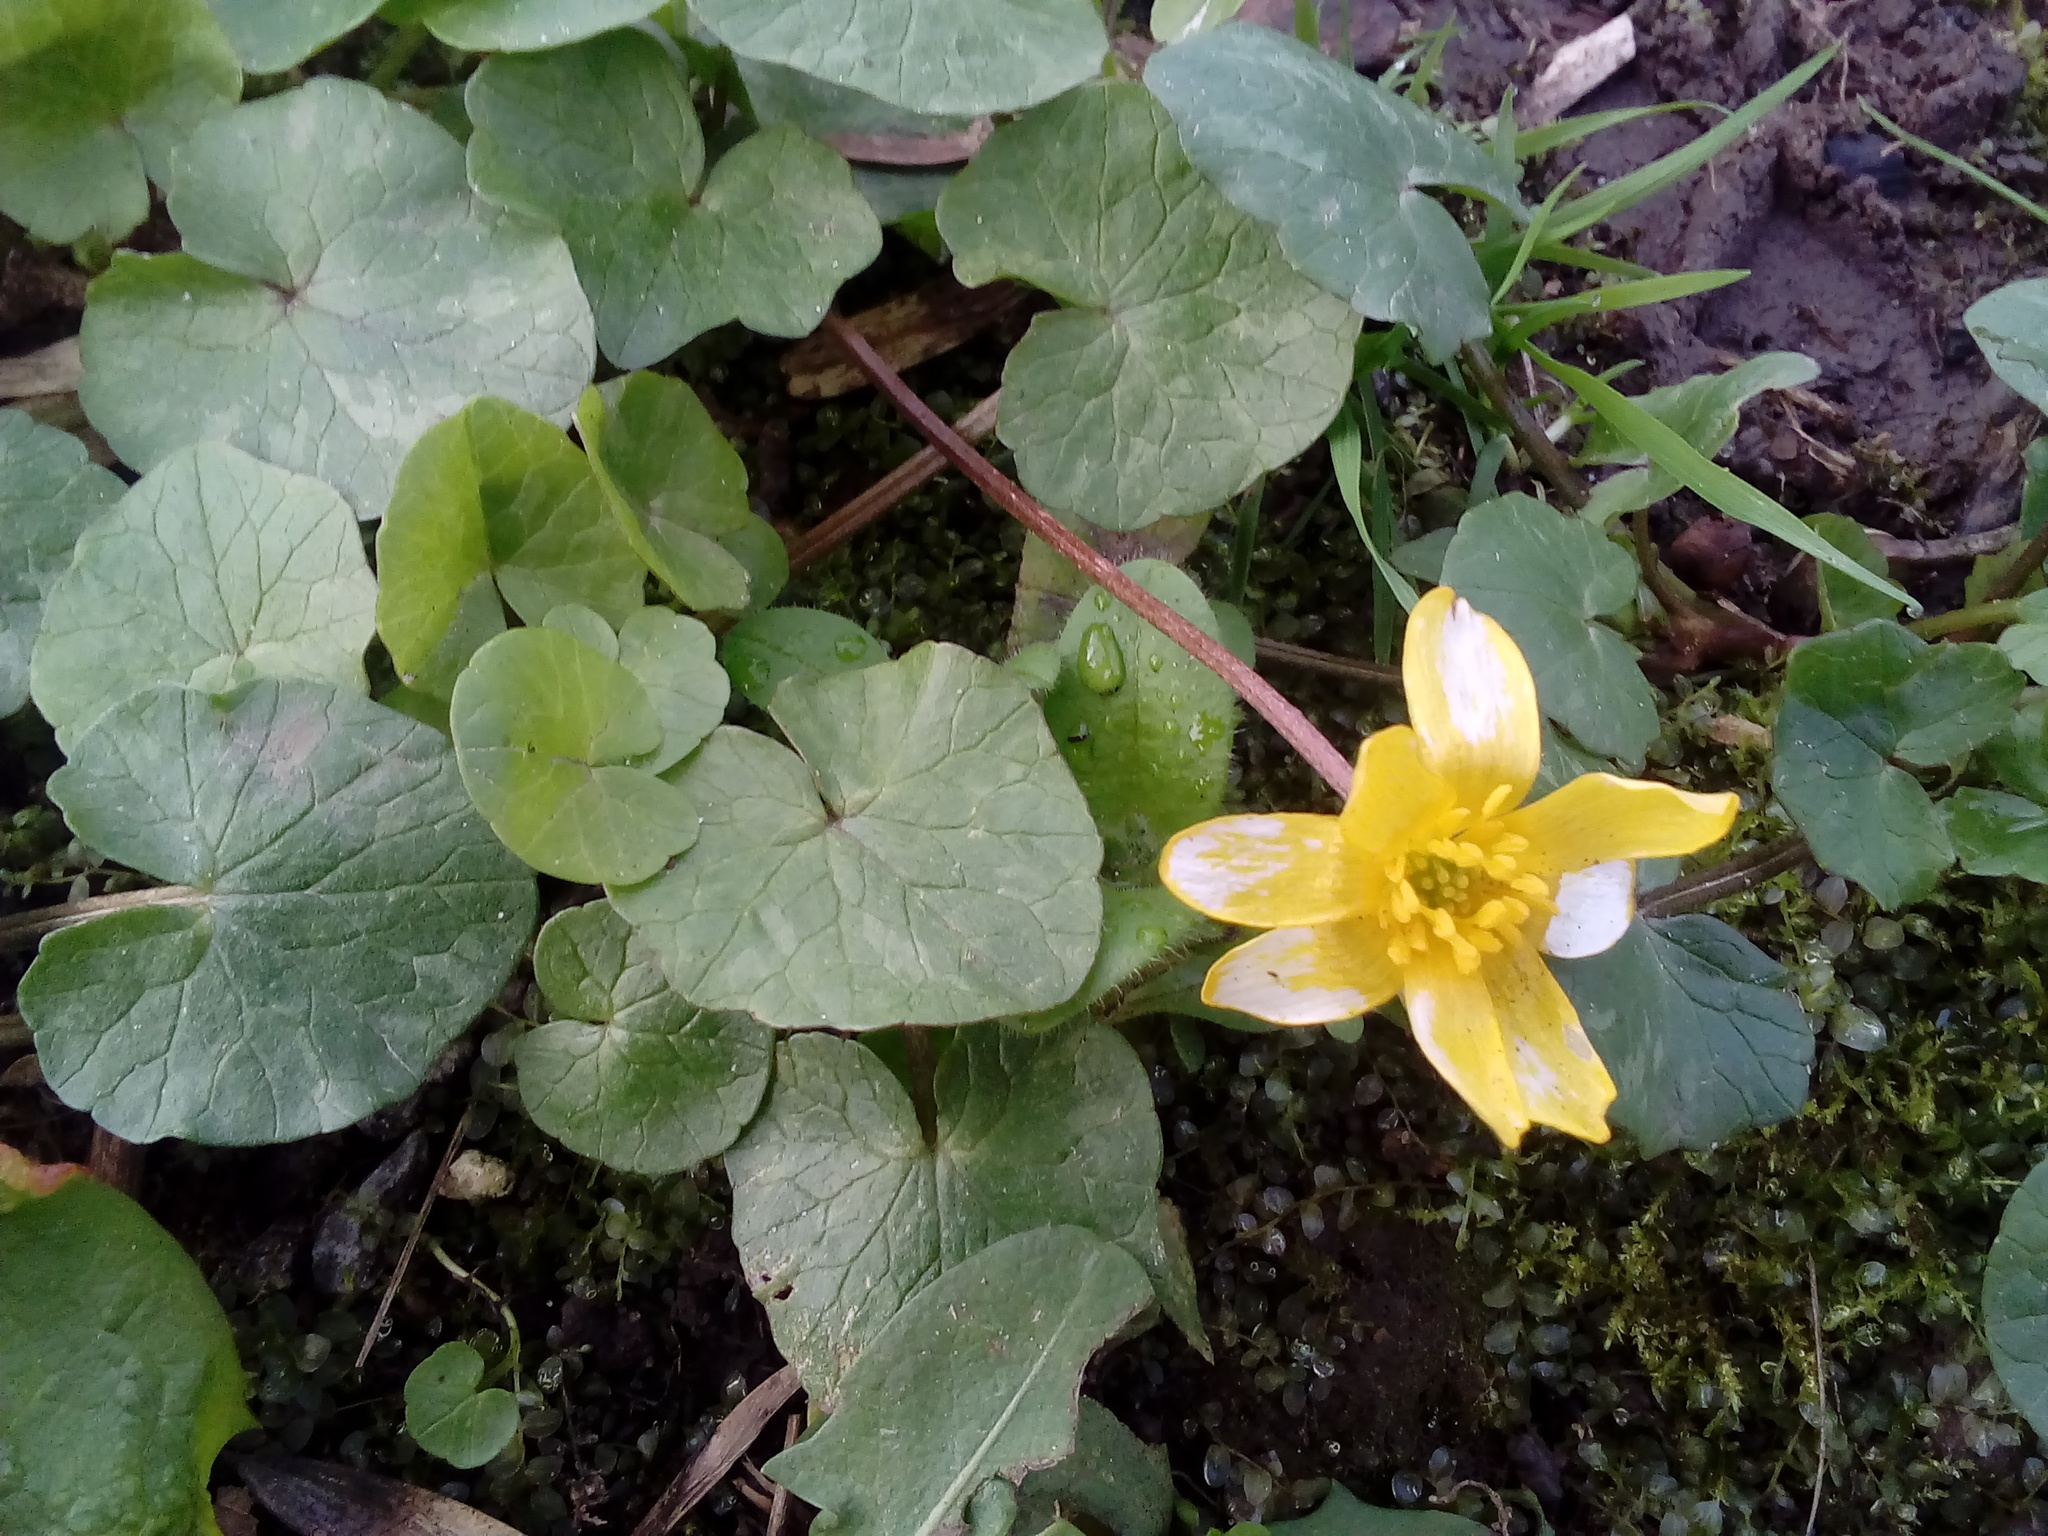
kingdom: Plantae
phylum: Tracheophyta
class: Magnoliopsida
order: Ranunculales
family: Ranunculaceae
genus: Ficaria
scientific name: Ficaria verna
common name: Lesser celandine
